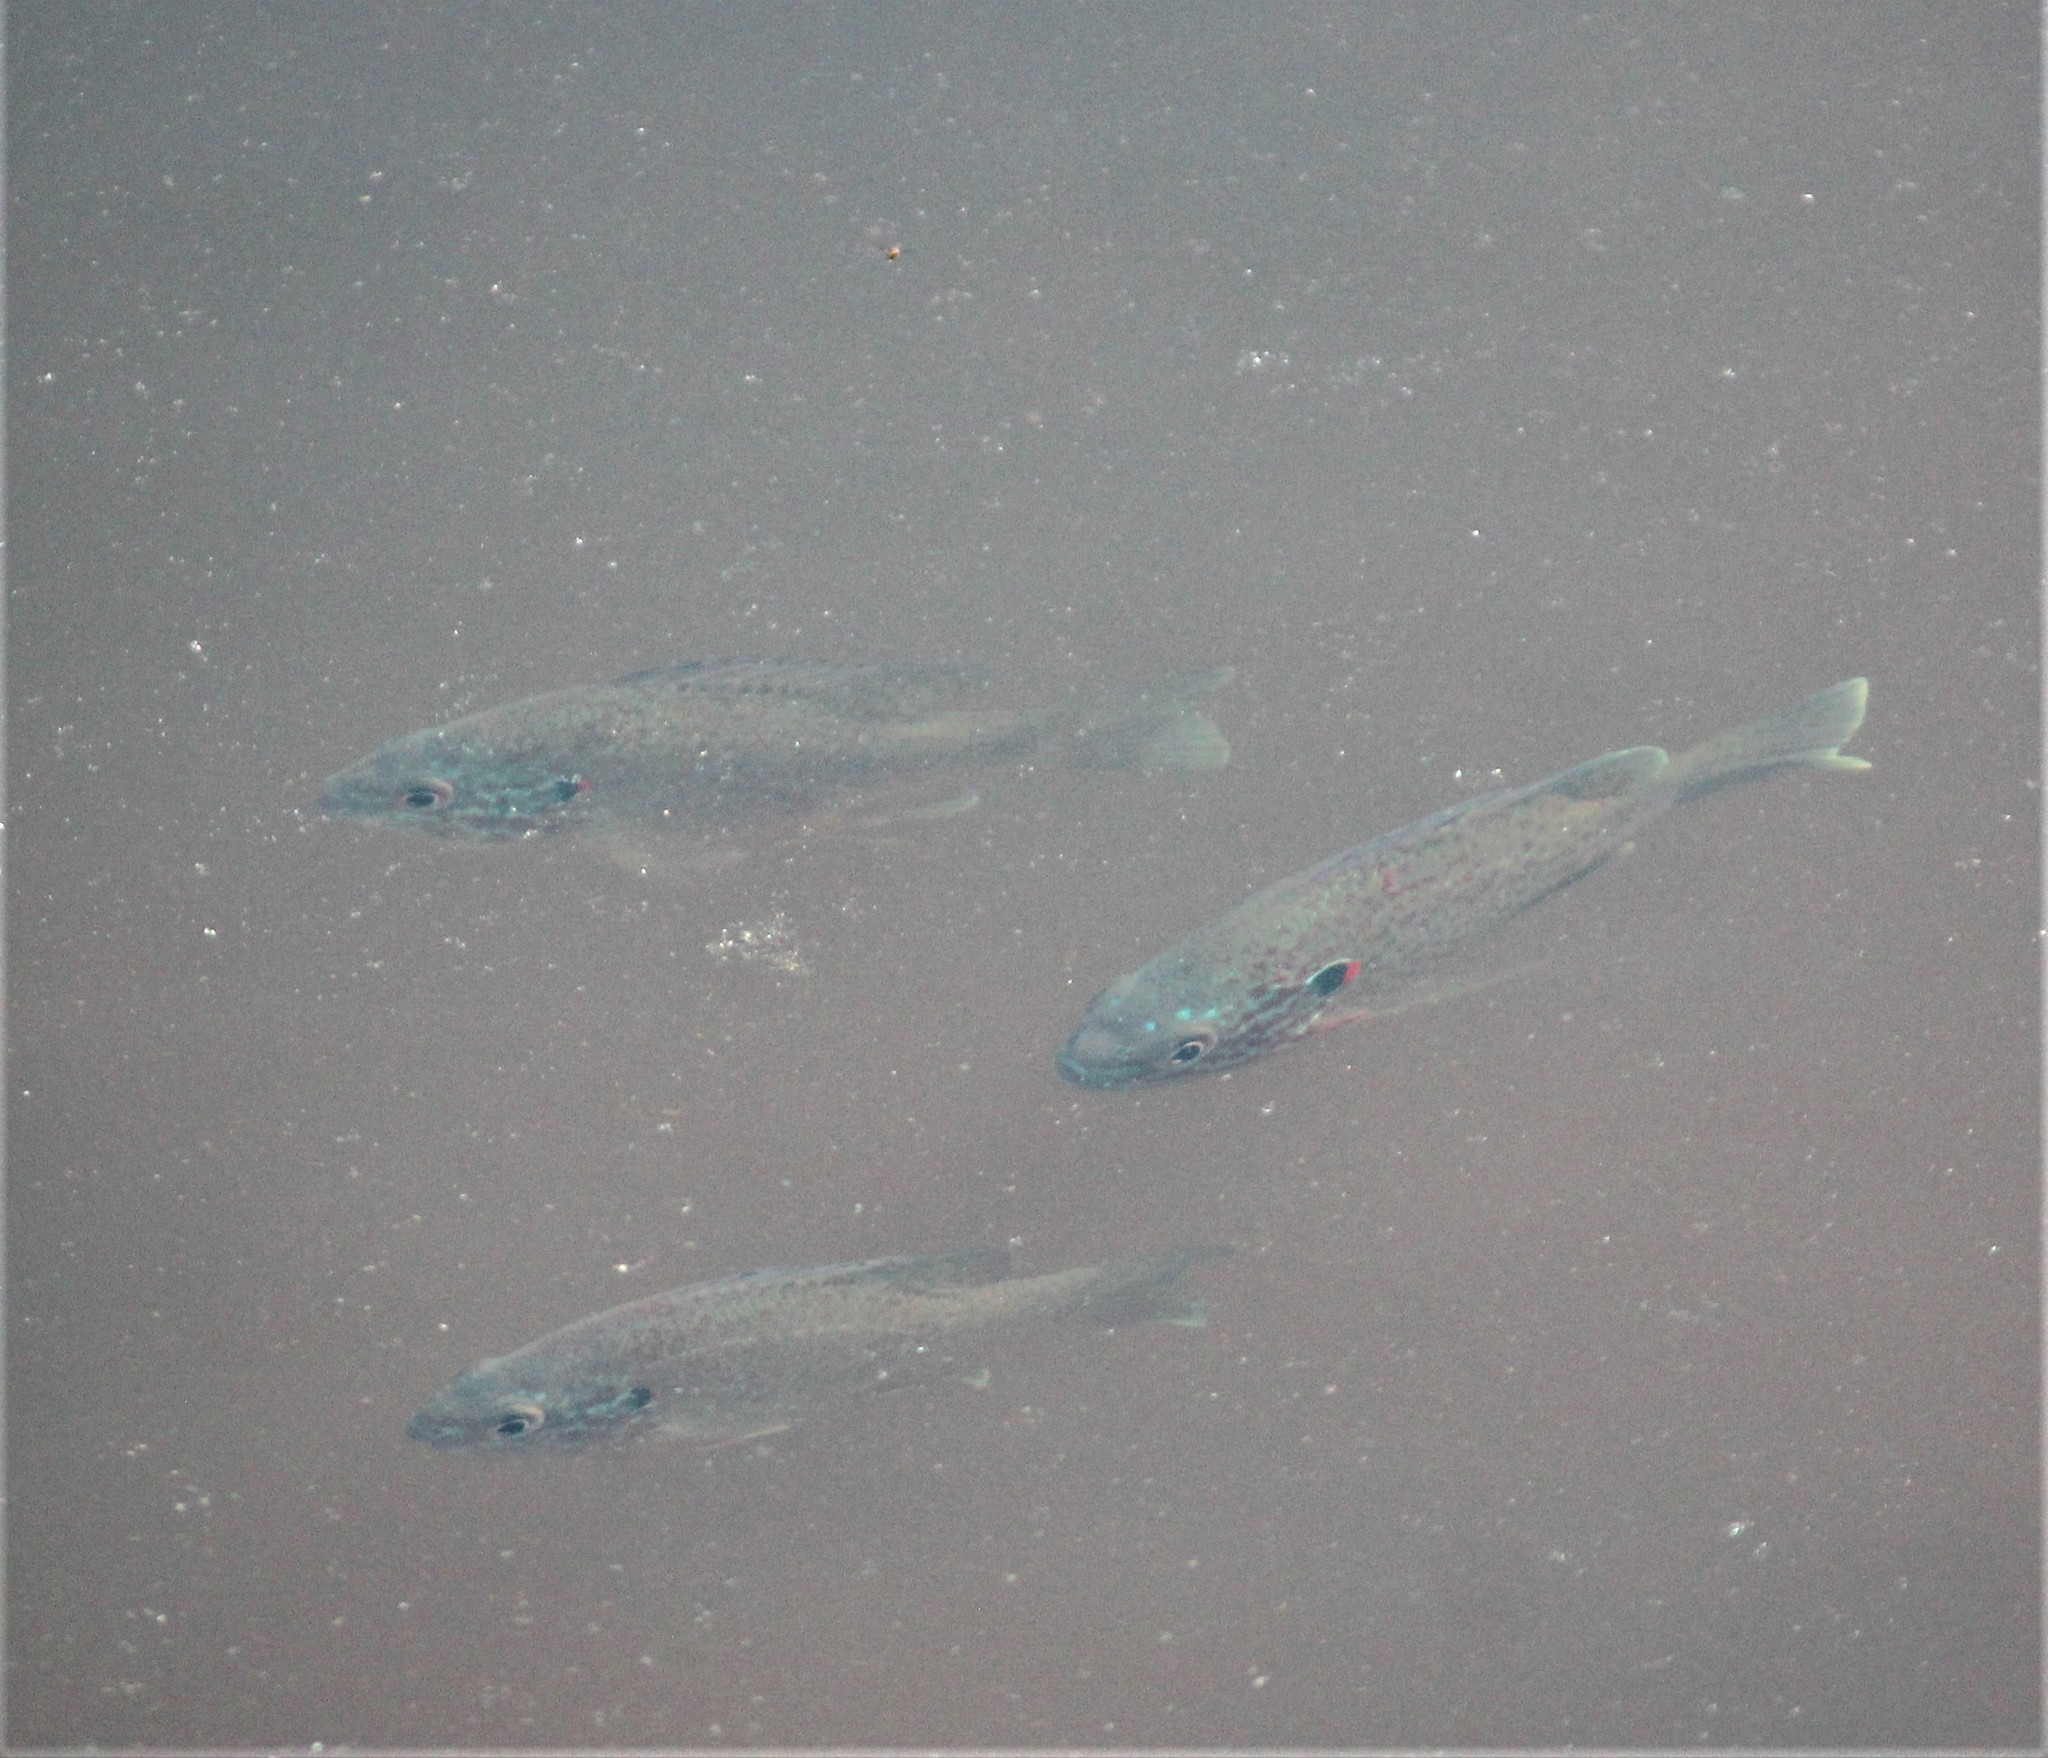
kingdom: Animalia
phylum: Chordata
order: Perciformes
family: Centrarchidae
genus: Lepomis
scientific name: Lepomis gibbosus
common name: Pumpkinseed
